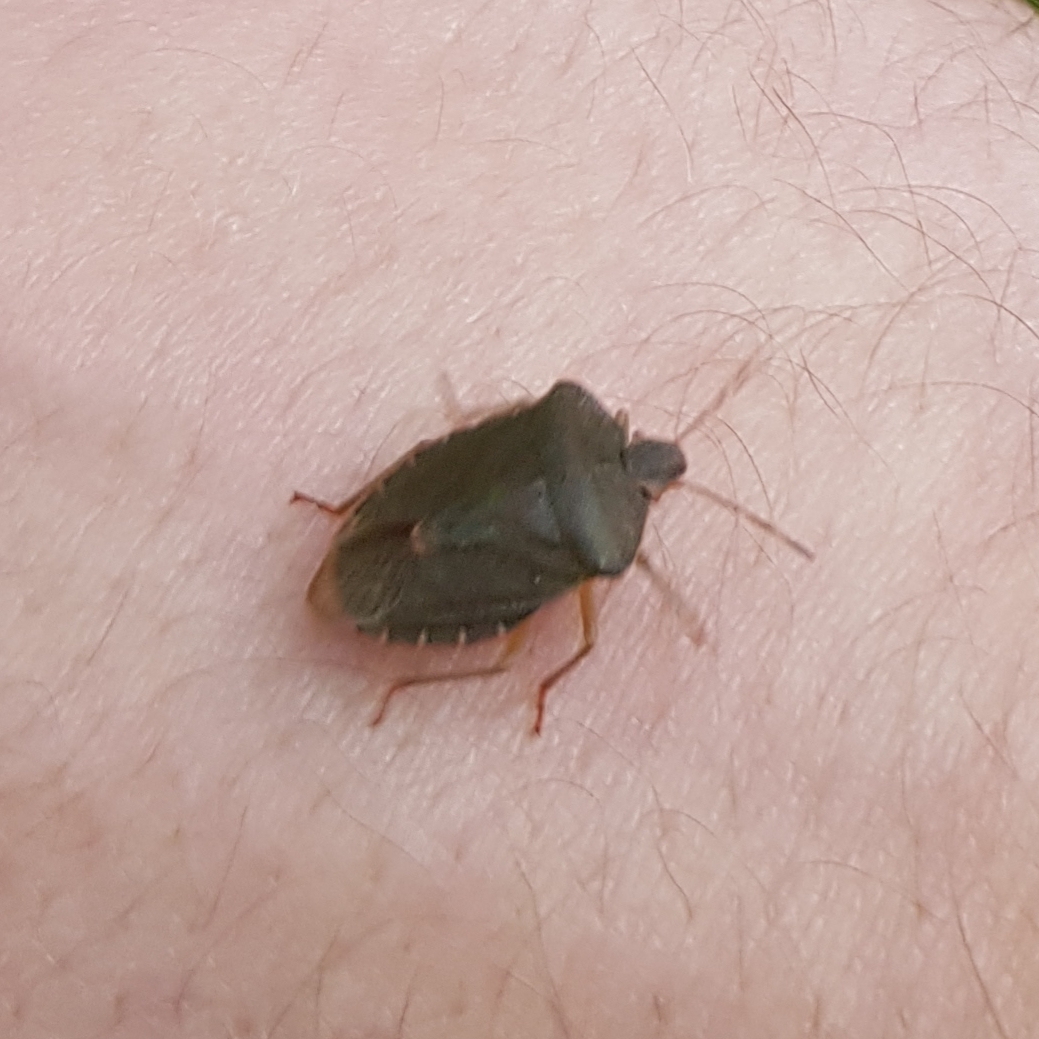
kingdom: Animalia
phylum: Arthropoda
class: Insecta
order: Hemiptera
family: Pentatomidae
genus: Palomena
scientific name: Palomena prasina
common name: Green shieldbug
